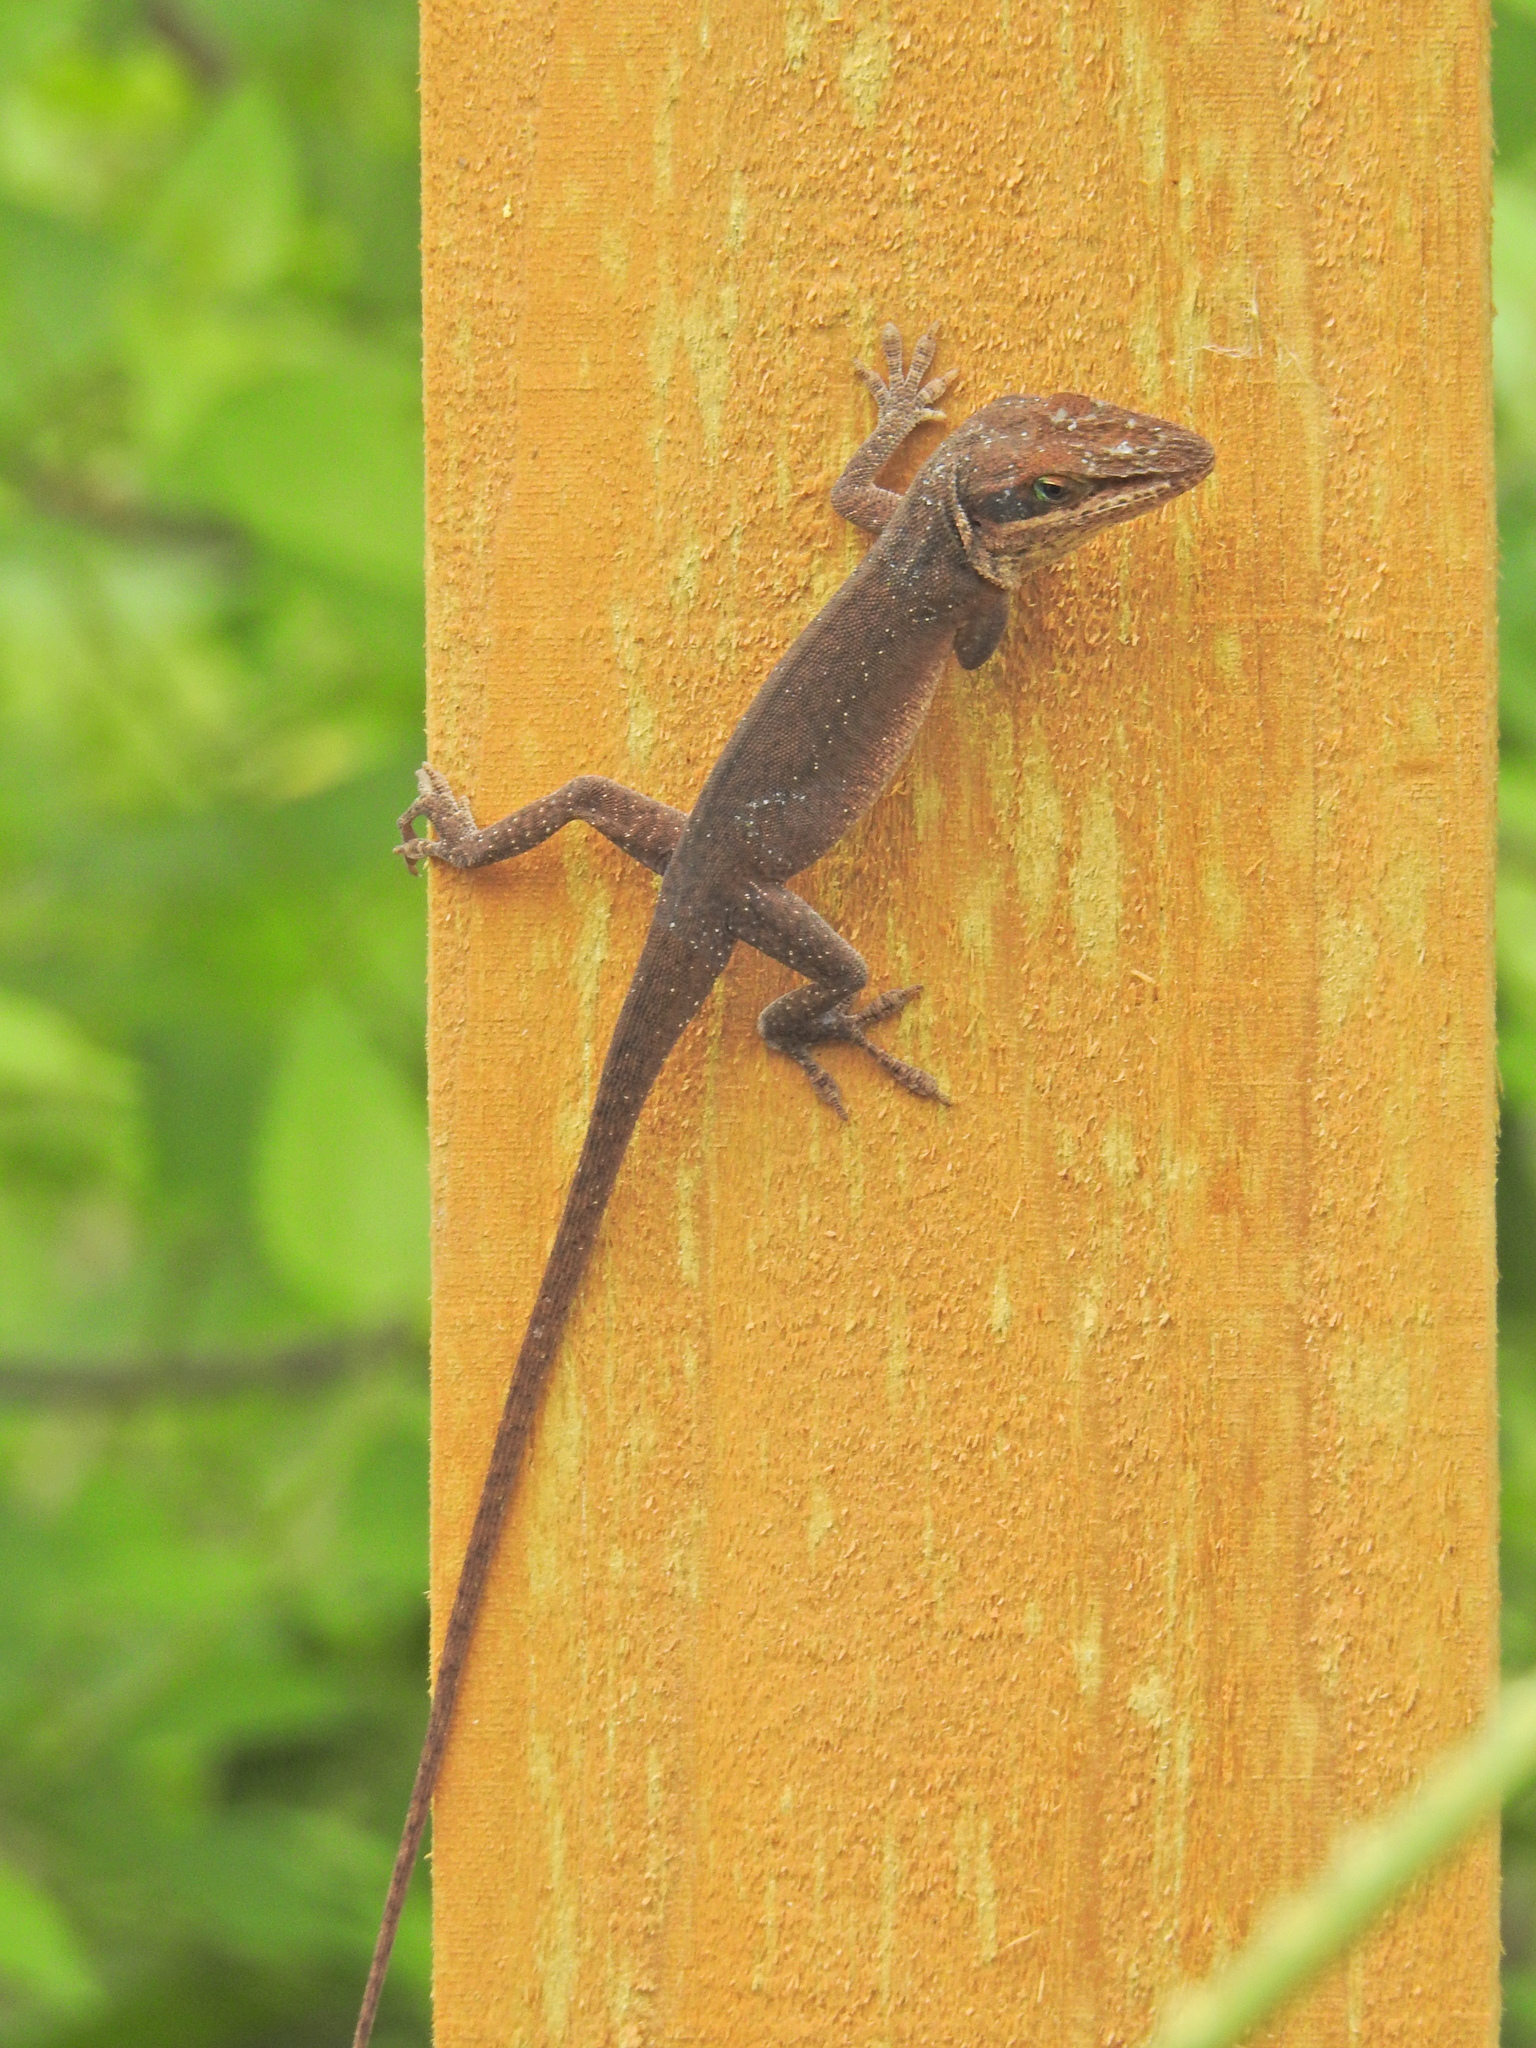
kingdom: Animalia
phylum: Chordata
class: Squamata
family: Dactyloidae
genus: Anolis
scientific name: Anolis carolinensis
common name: Green anole
